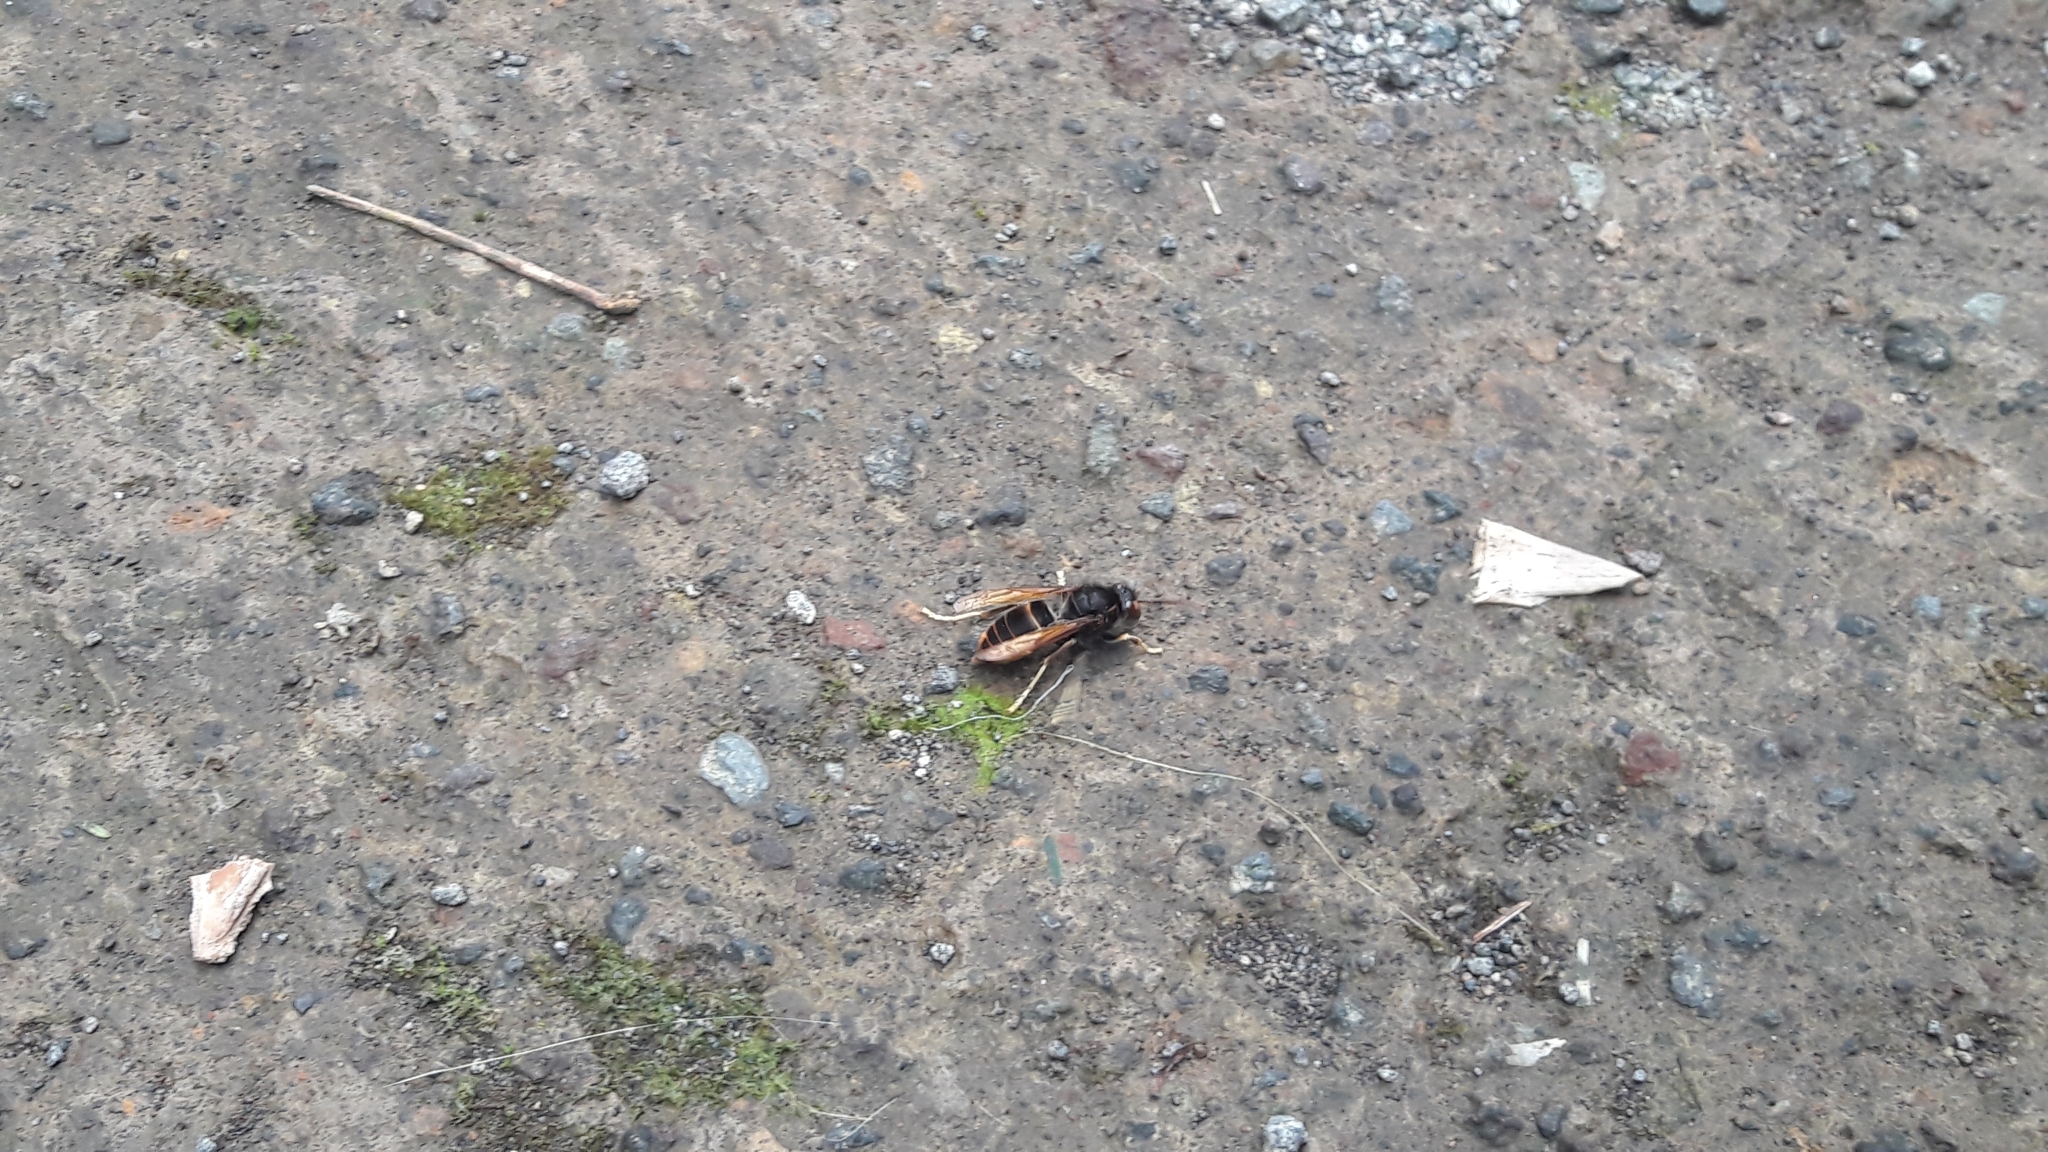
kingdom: Animalia
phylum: Arthropoda
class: Insecta
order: Hymenoptera
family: Vespidae
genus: Vespa
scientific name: Vespa velutina
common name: Asian hornet
